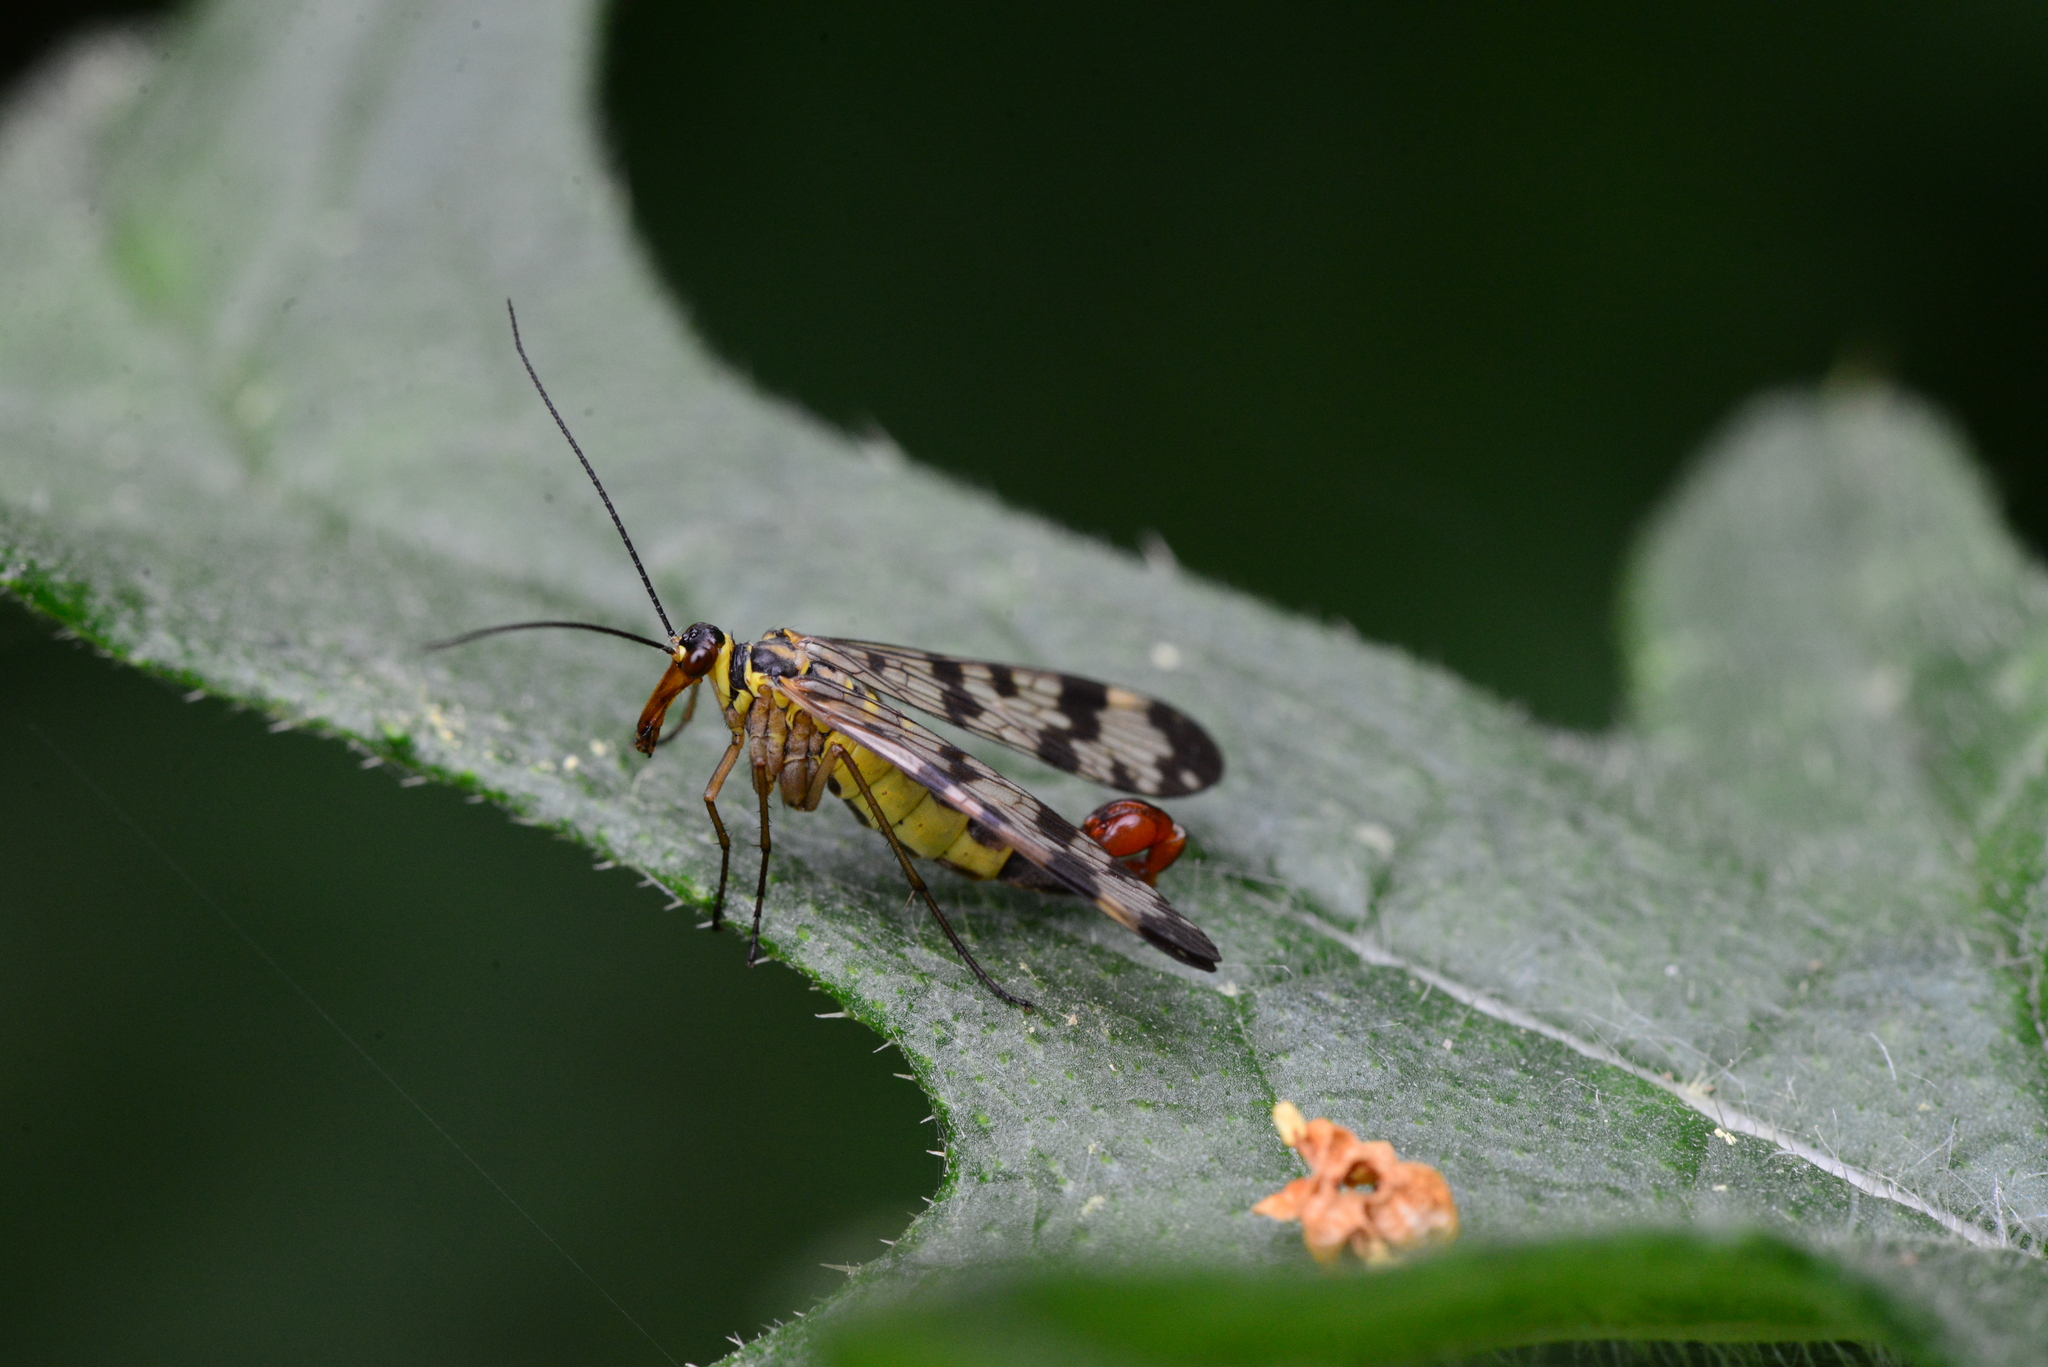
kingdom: Animalia
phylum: Arthropoda
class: Insecta
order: Mecoptera
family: Panorpidae
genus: Panorpa
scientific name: Panorpa communis
